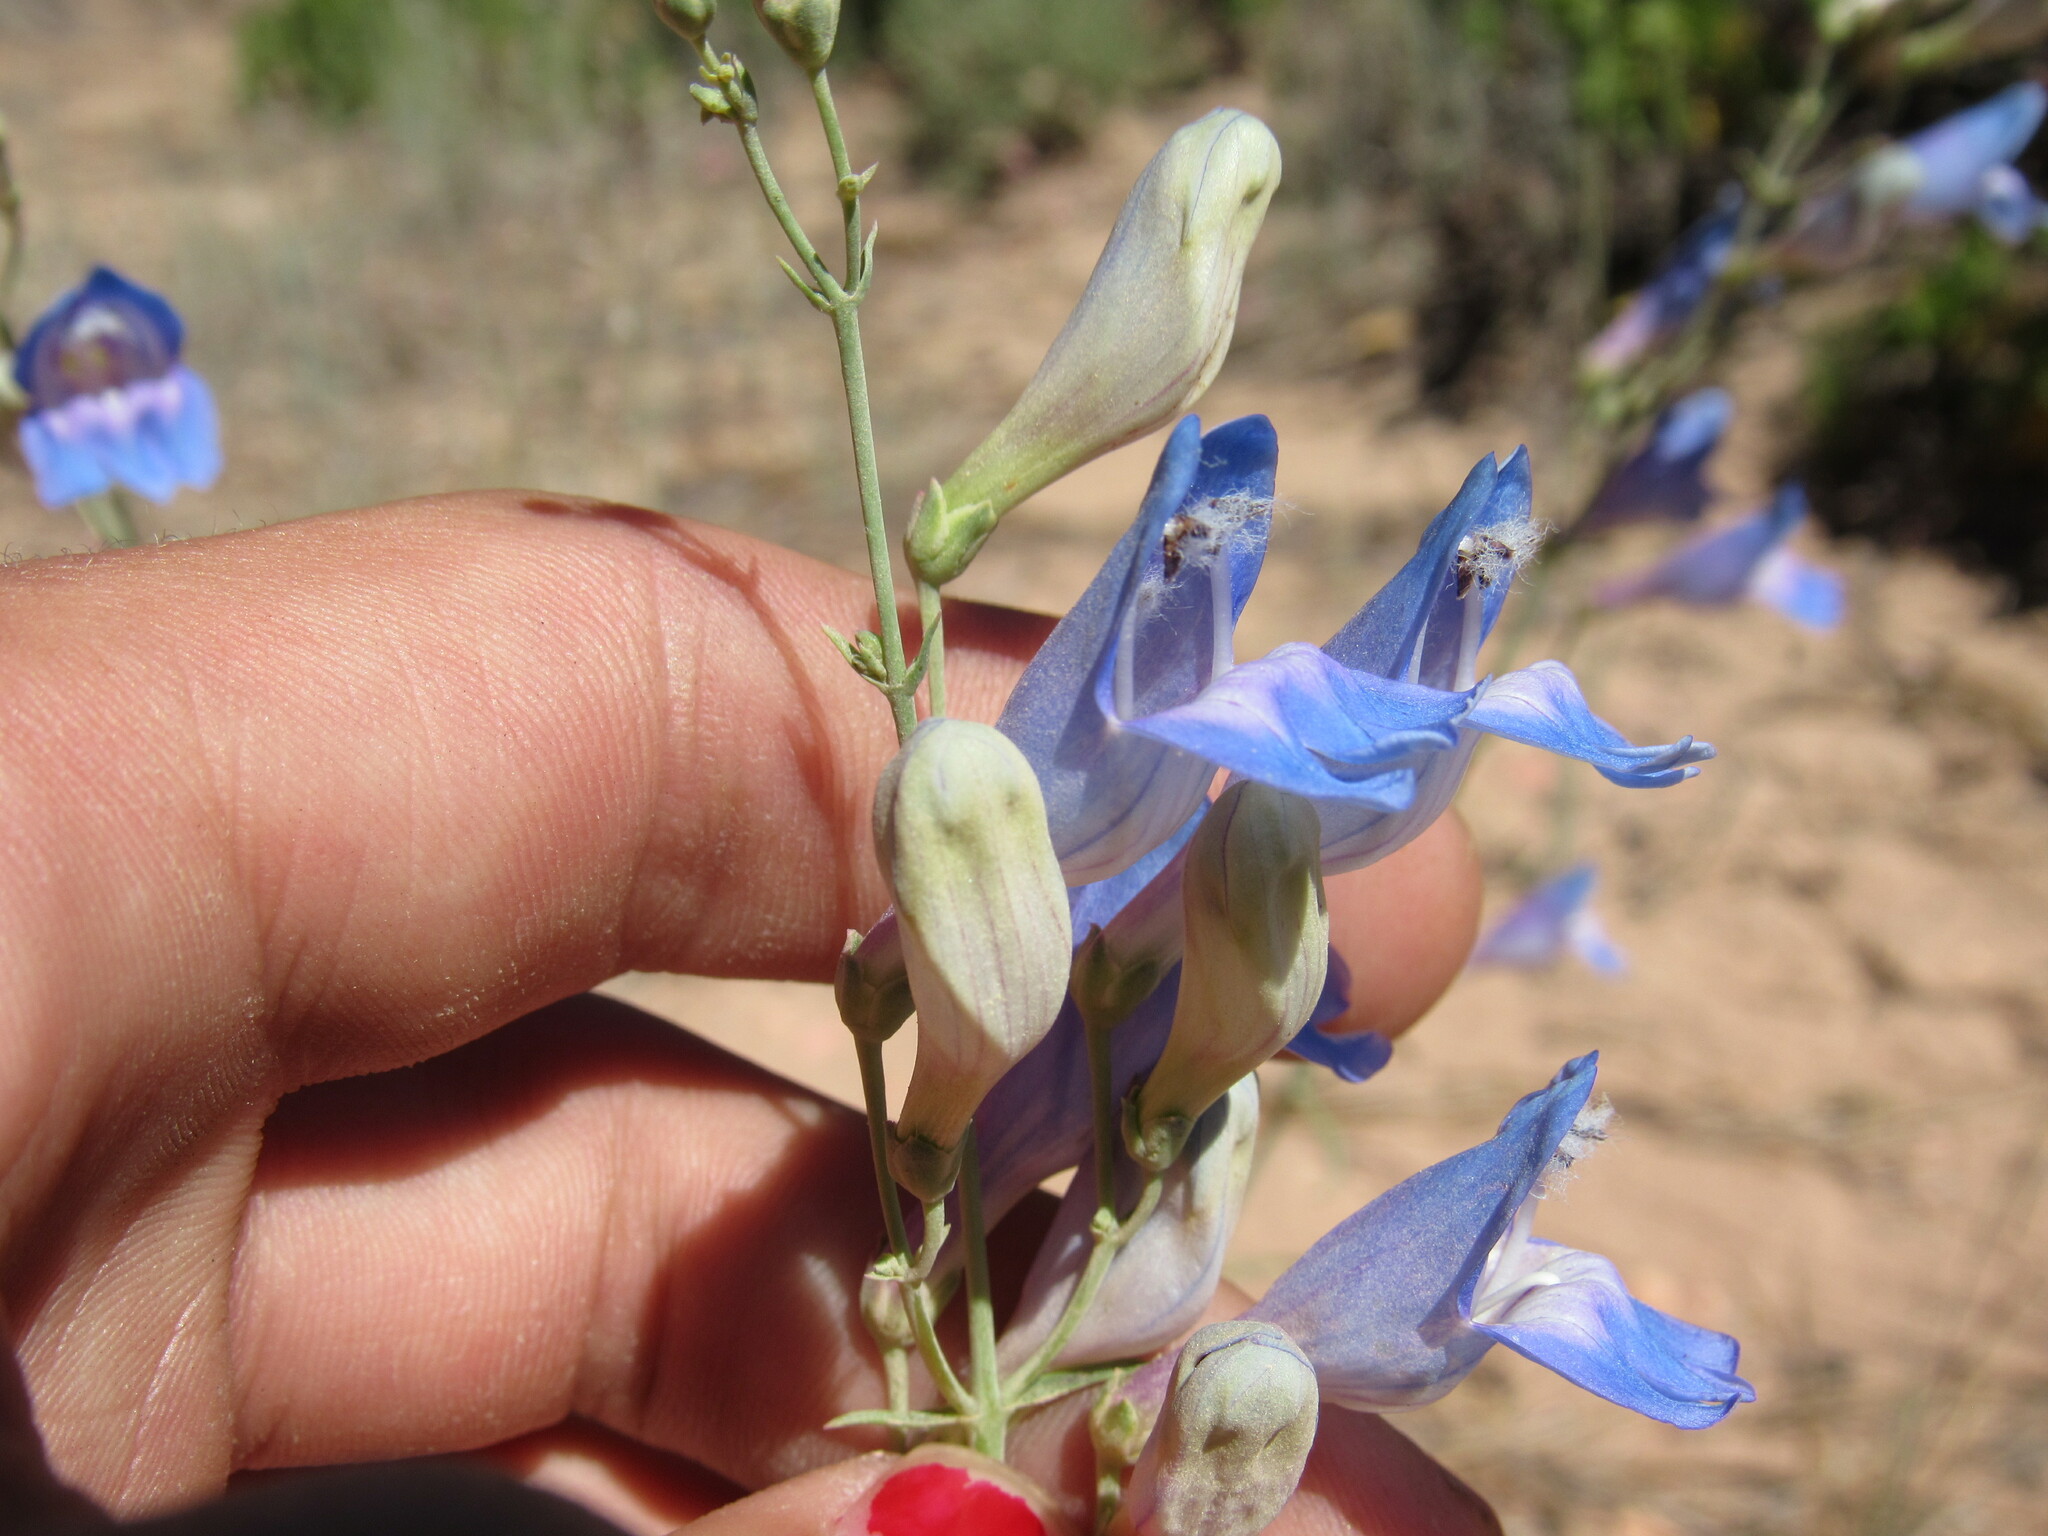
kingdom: Plantae
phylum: Tracheophyta
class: Magnoliopsida
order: Lamiales
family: Plantaginaceae
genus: Penstemon
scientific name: Penstemon comarrhenus
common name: Dusty penstemon
